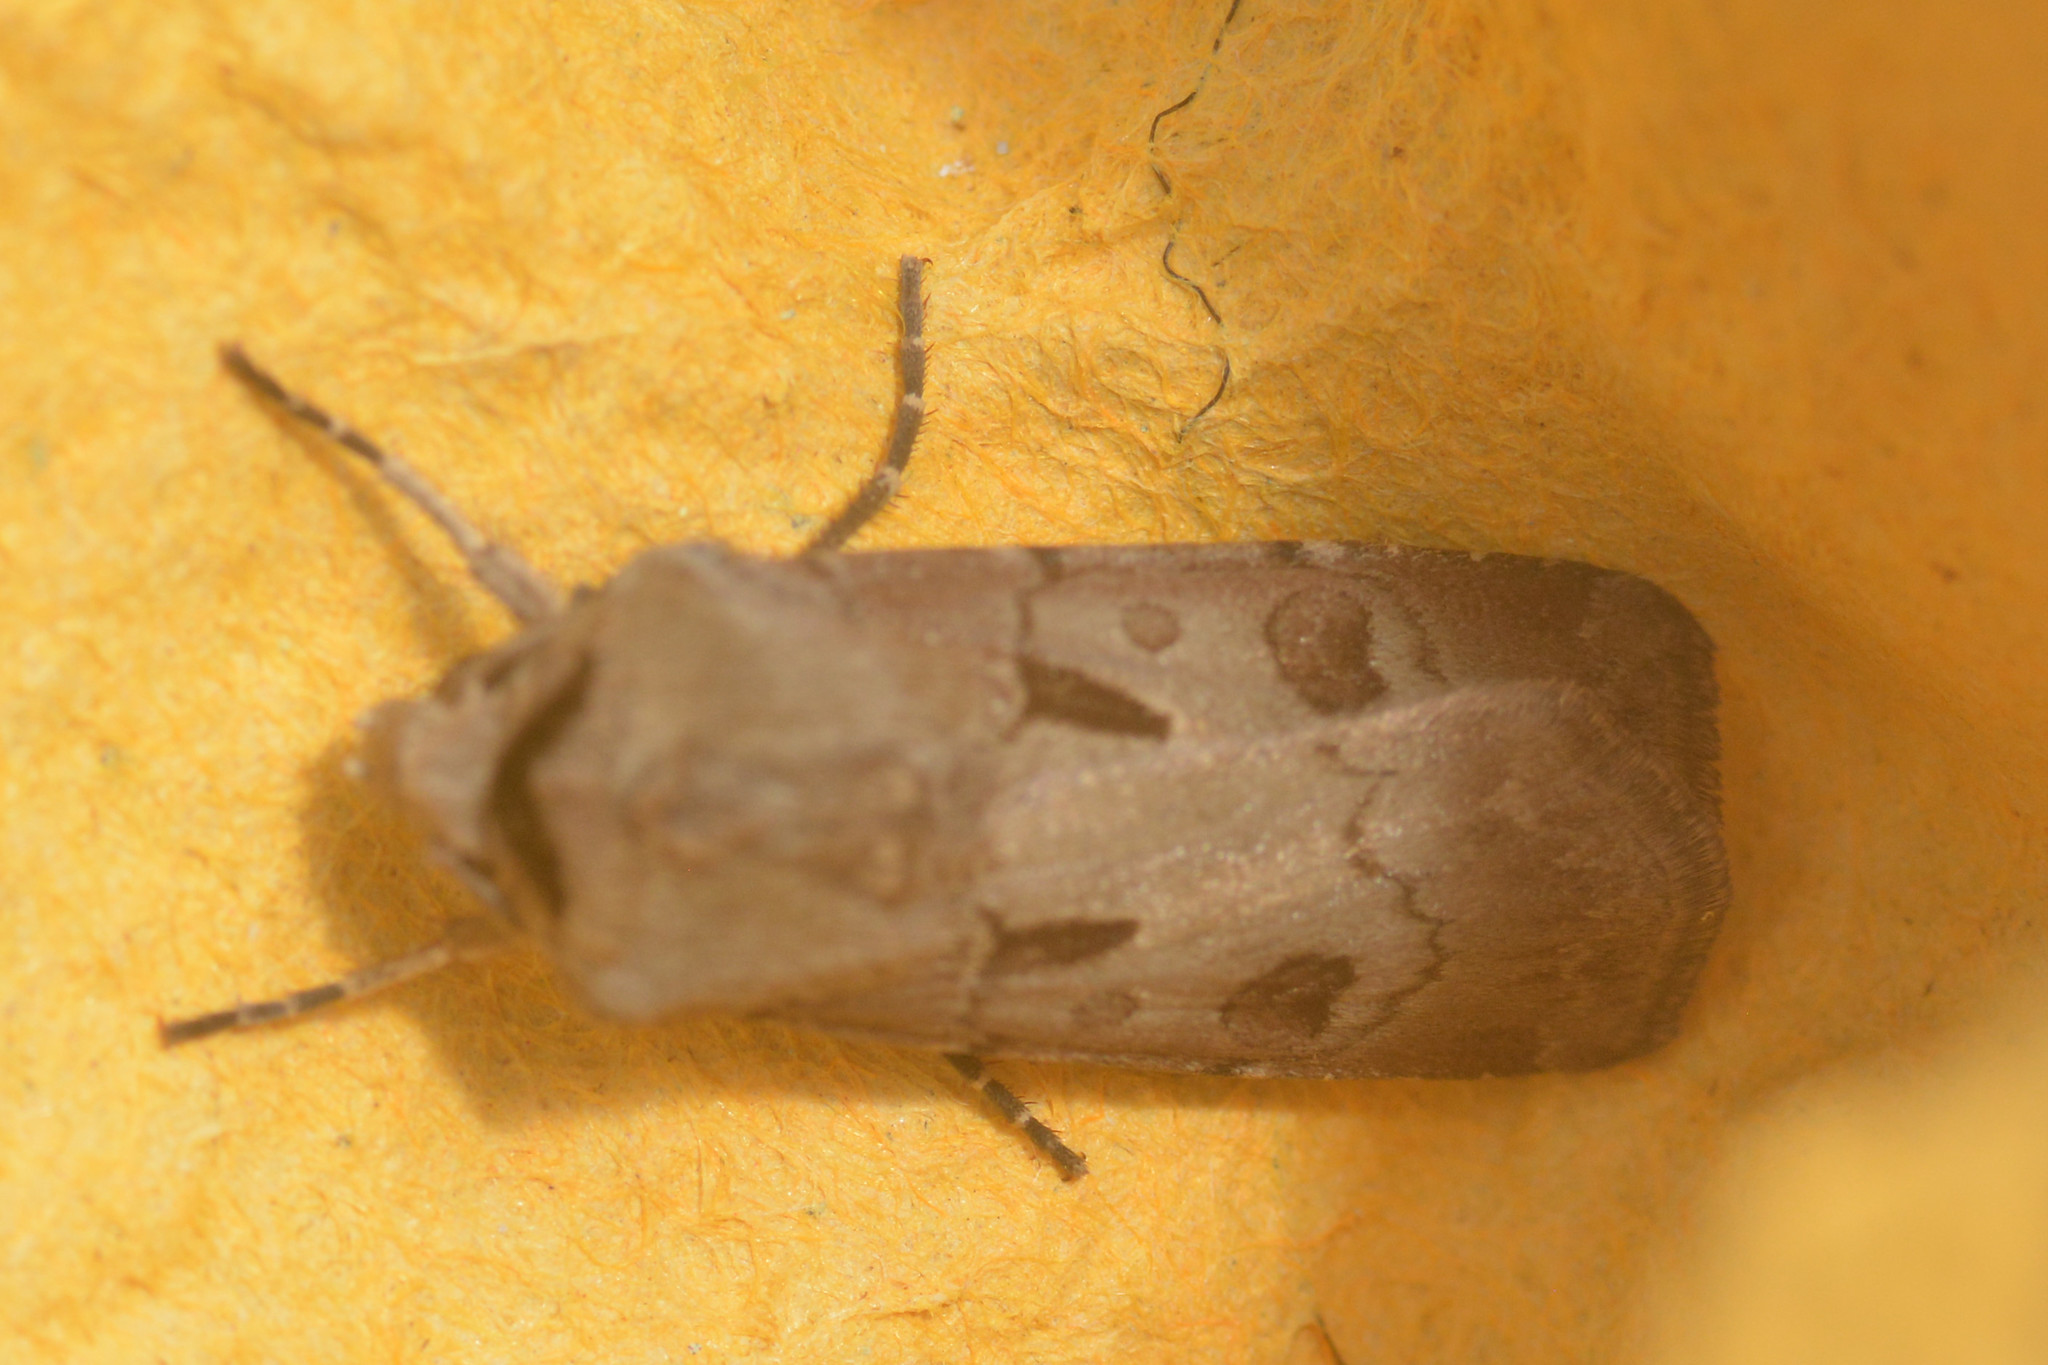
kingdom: Animalia
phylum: Arthropoda
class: Insecta
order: Lepidoptera
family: Noctuidae
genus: Agrotis
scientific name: Agrotis exclamationis
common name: Heart and dart
